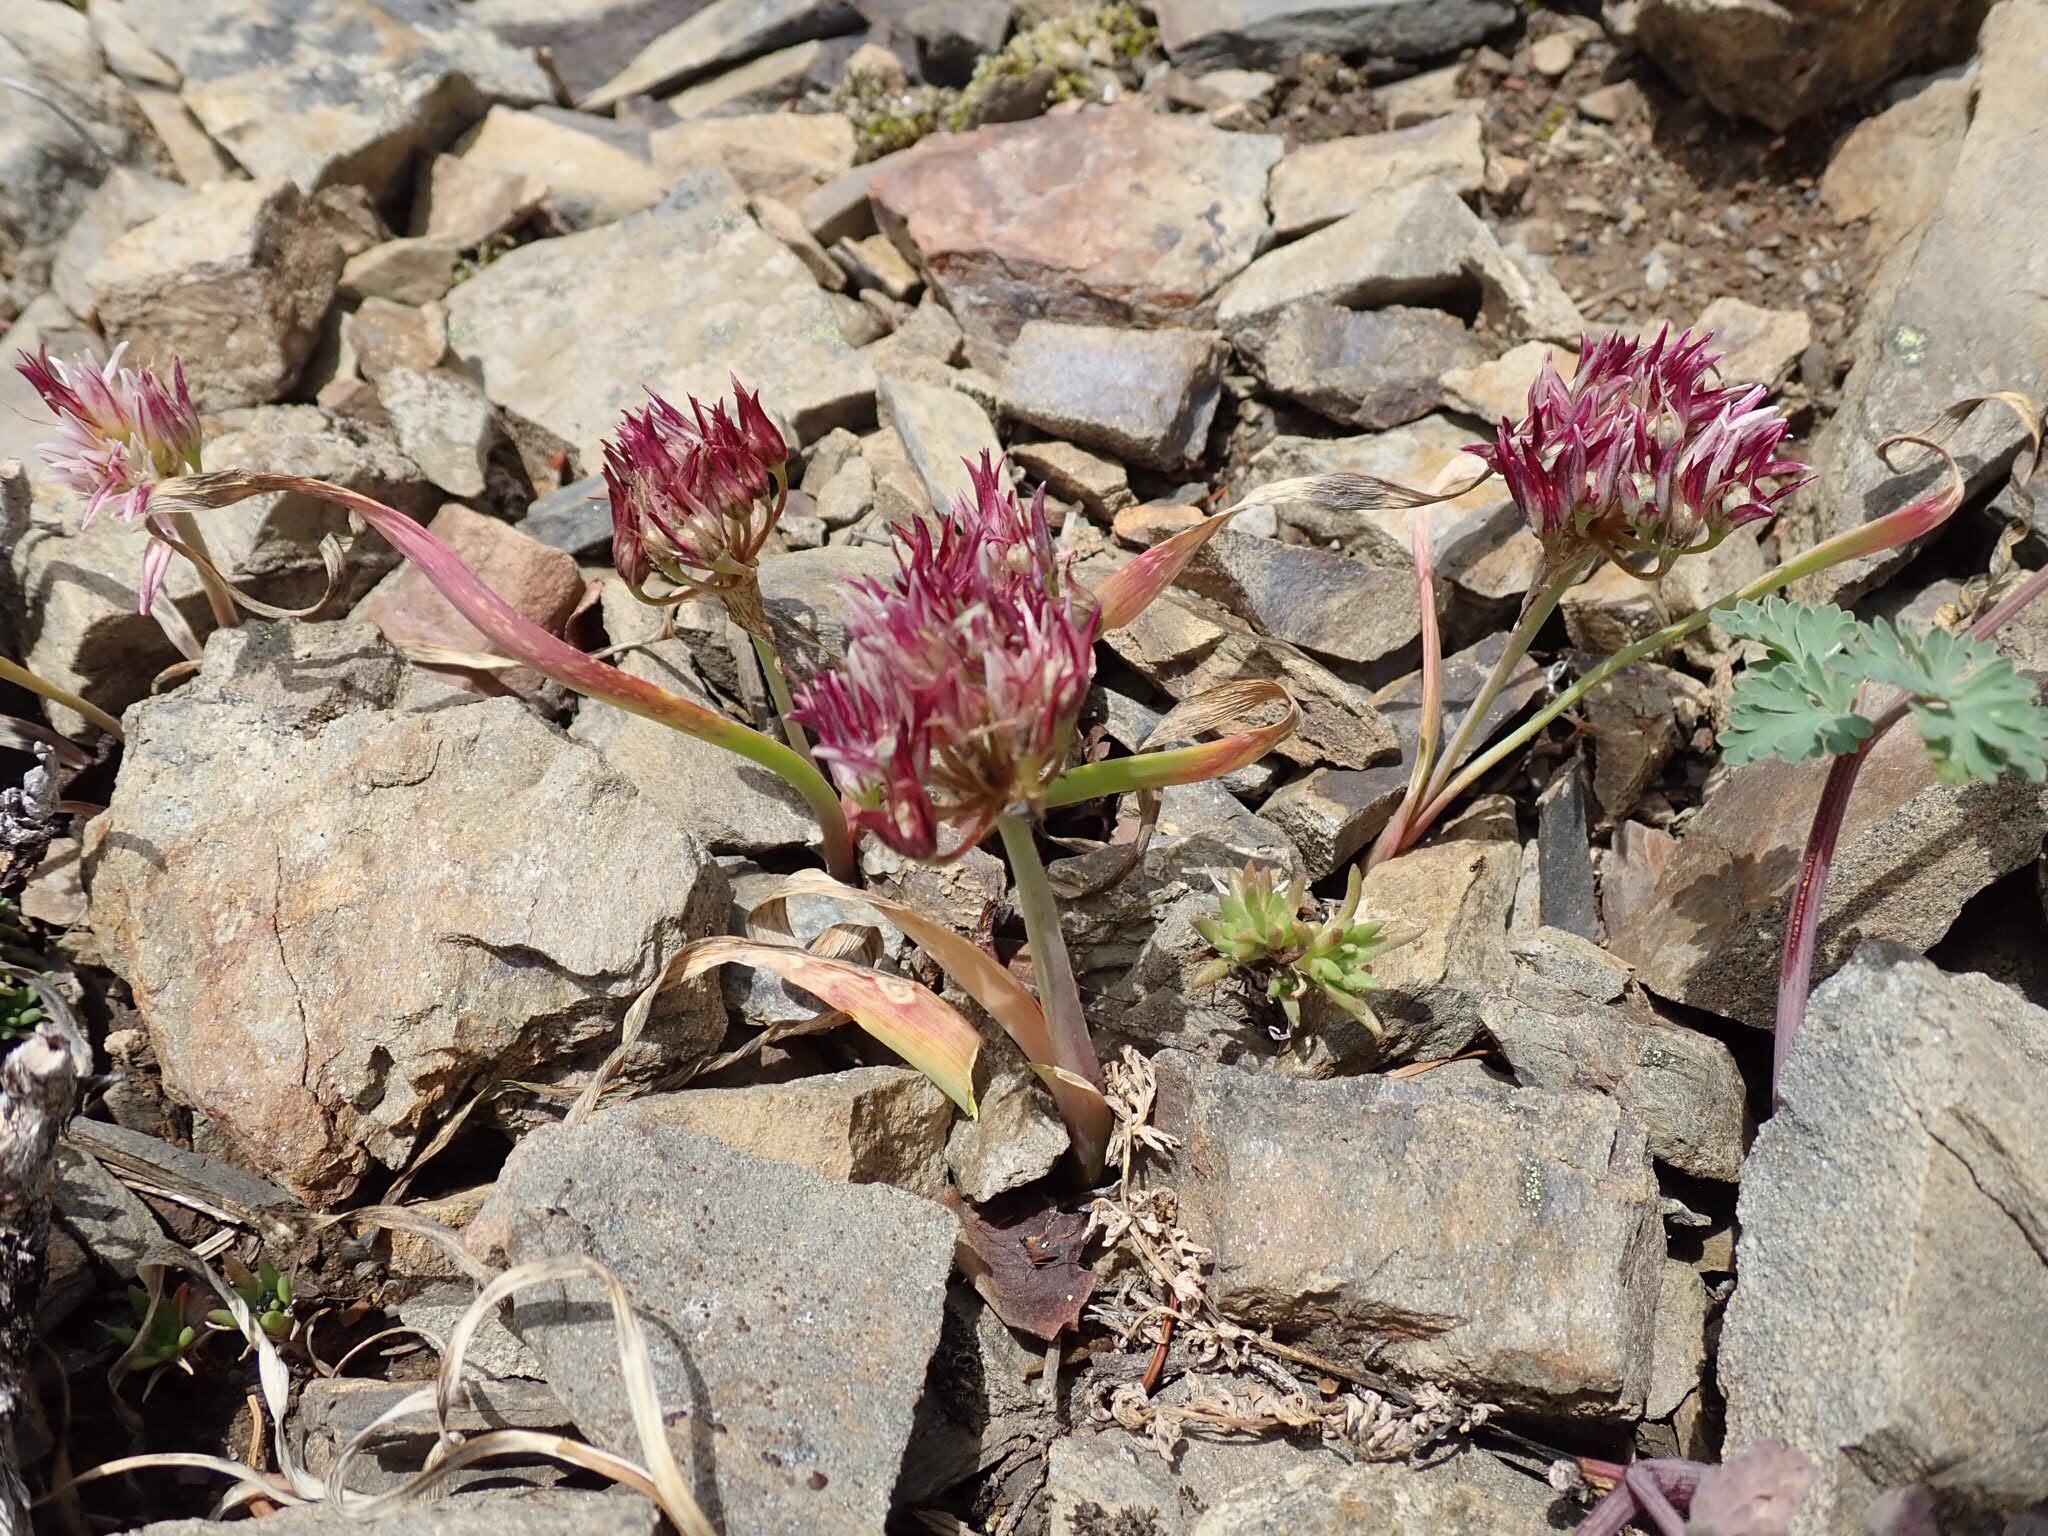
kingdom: Plantae
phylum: Tracheophyta
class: Liliopsida
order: Asparagales
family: Amaryllidaceae
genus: Allium
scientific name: Allium crenulatum
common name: Olympic onion
